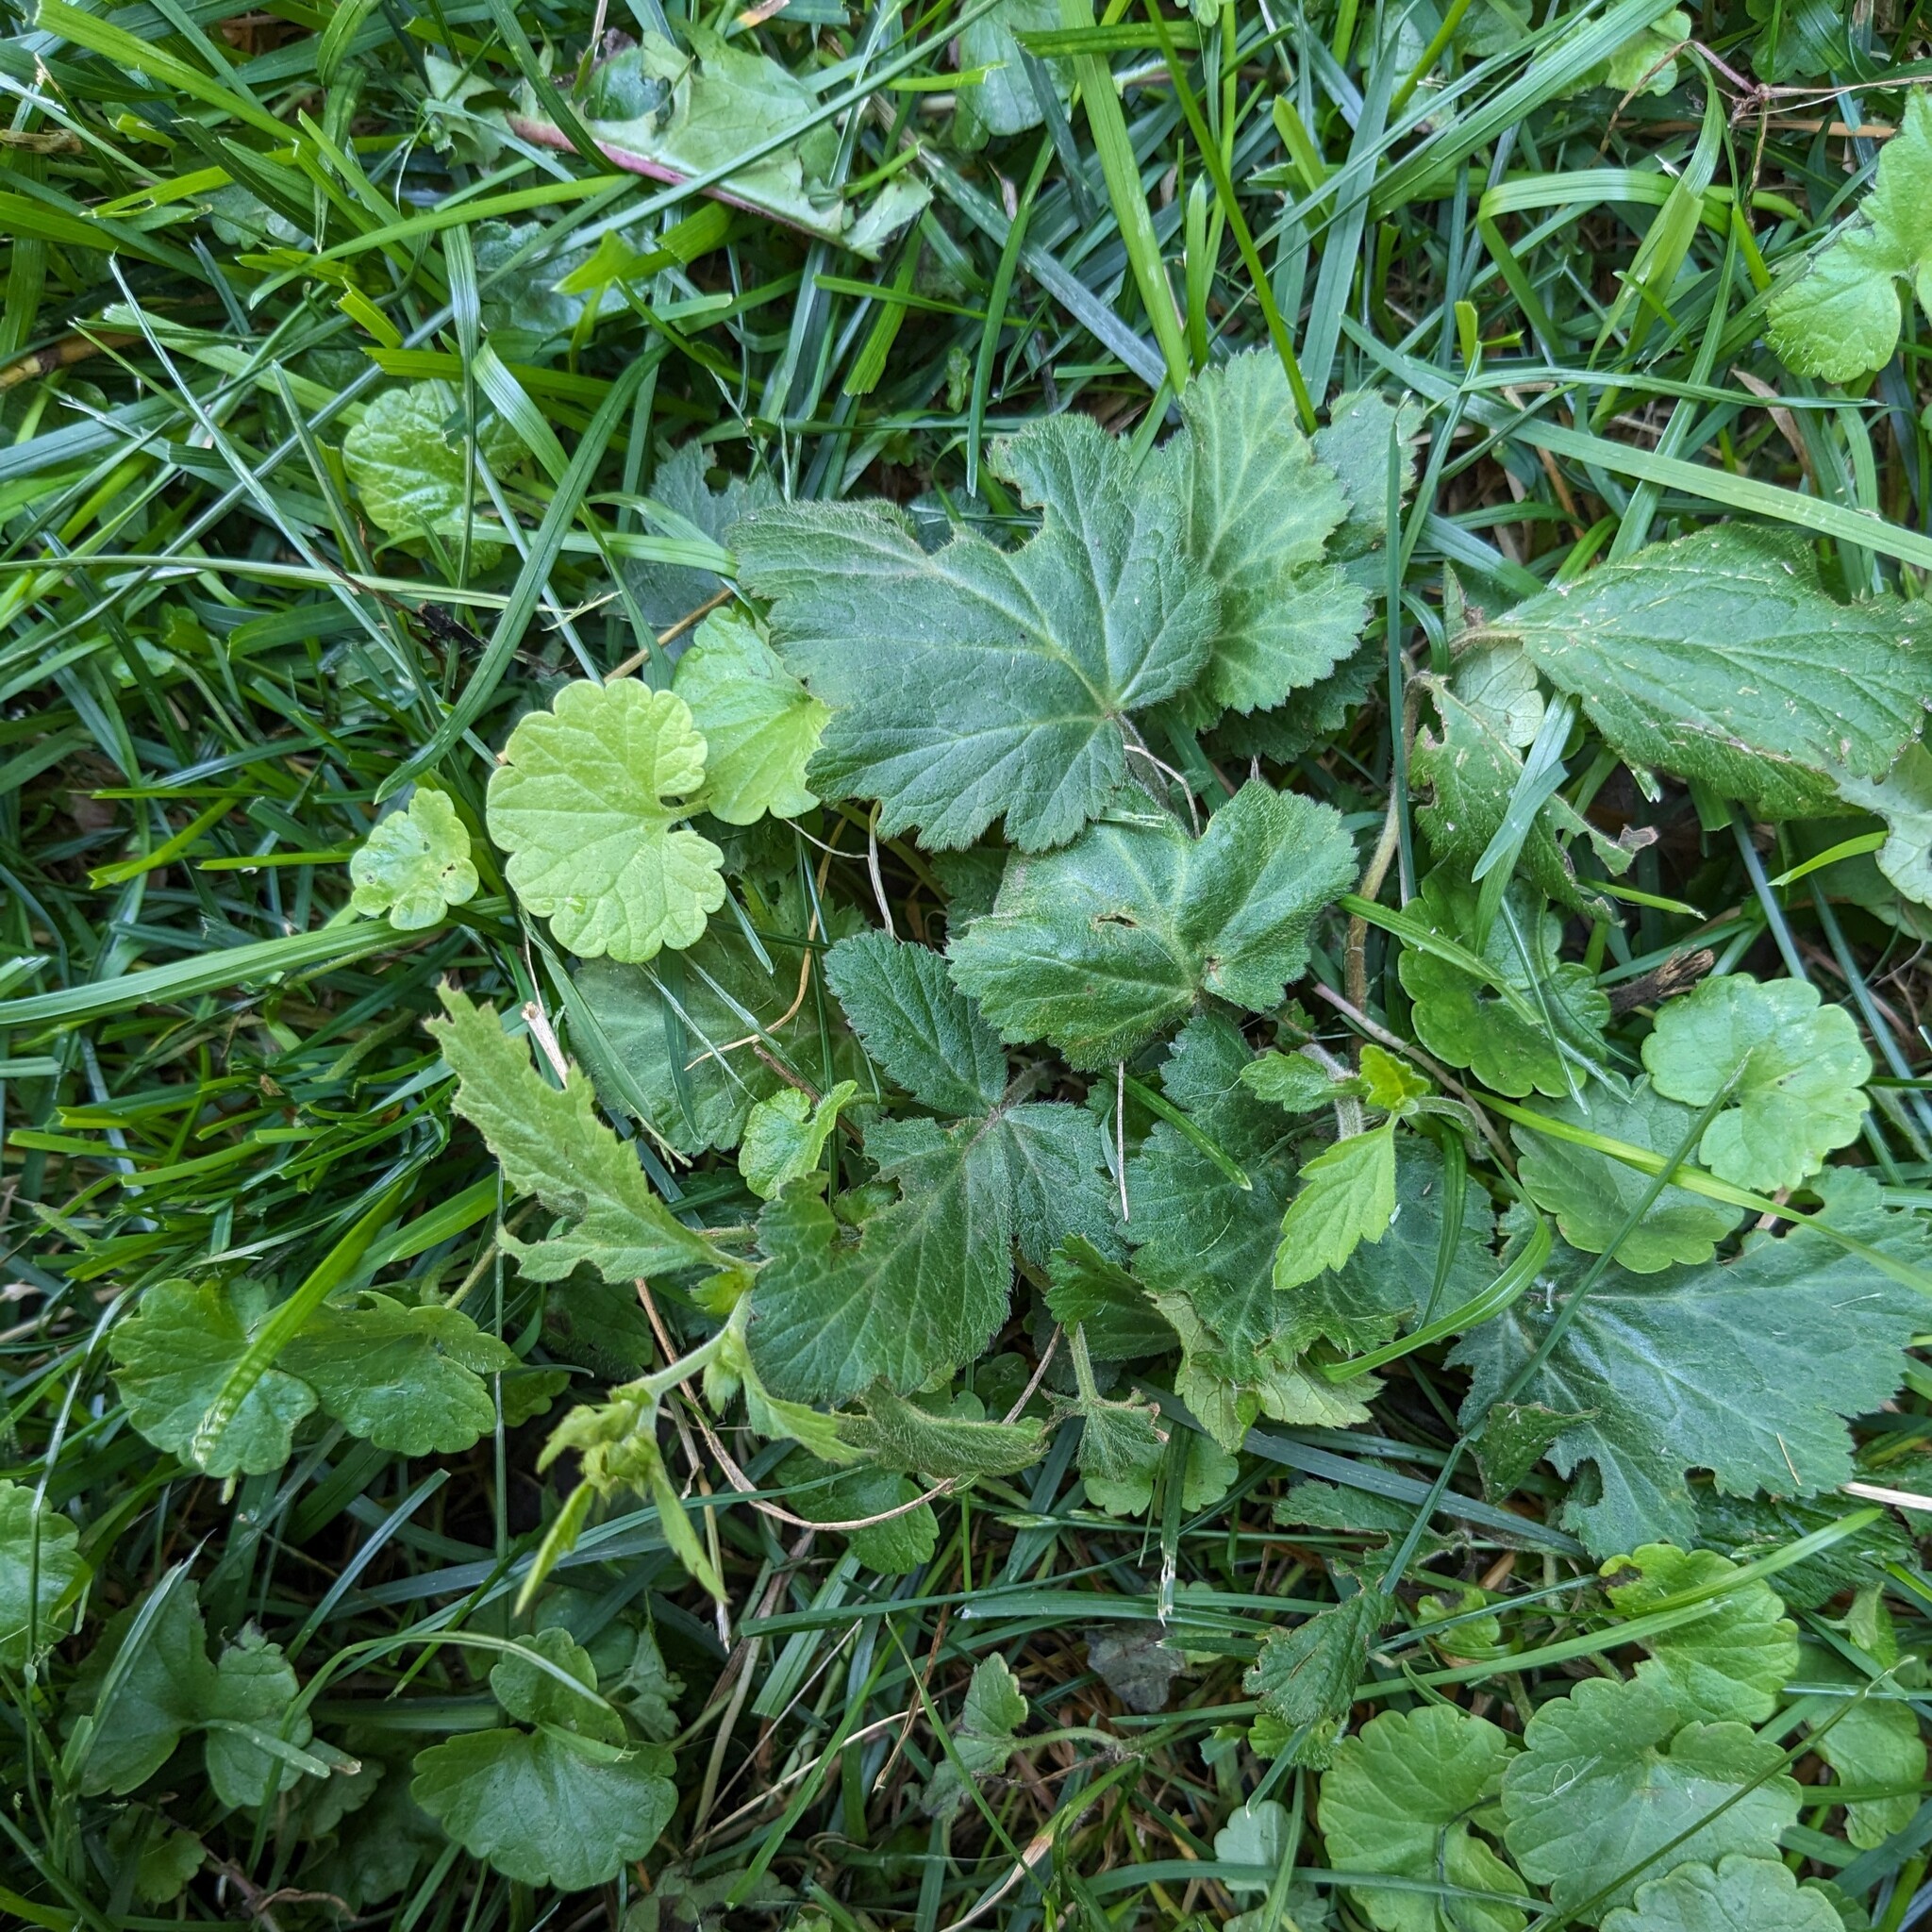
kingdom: Plantae
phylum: Tracheophyta
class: Magnoliopsida
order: Rosales
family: Rosaceae
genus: Geum
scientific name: Geum canadense
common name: White avens
